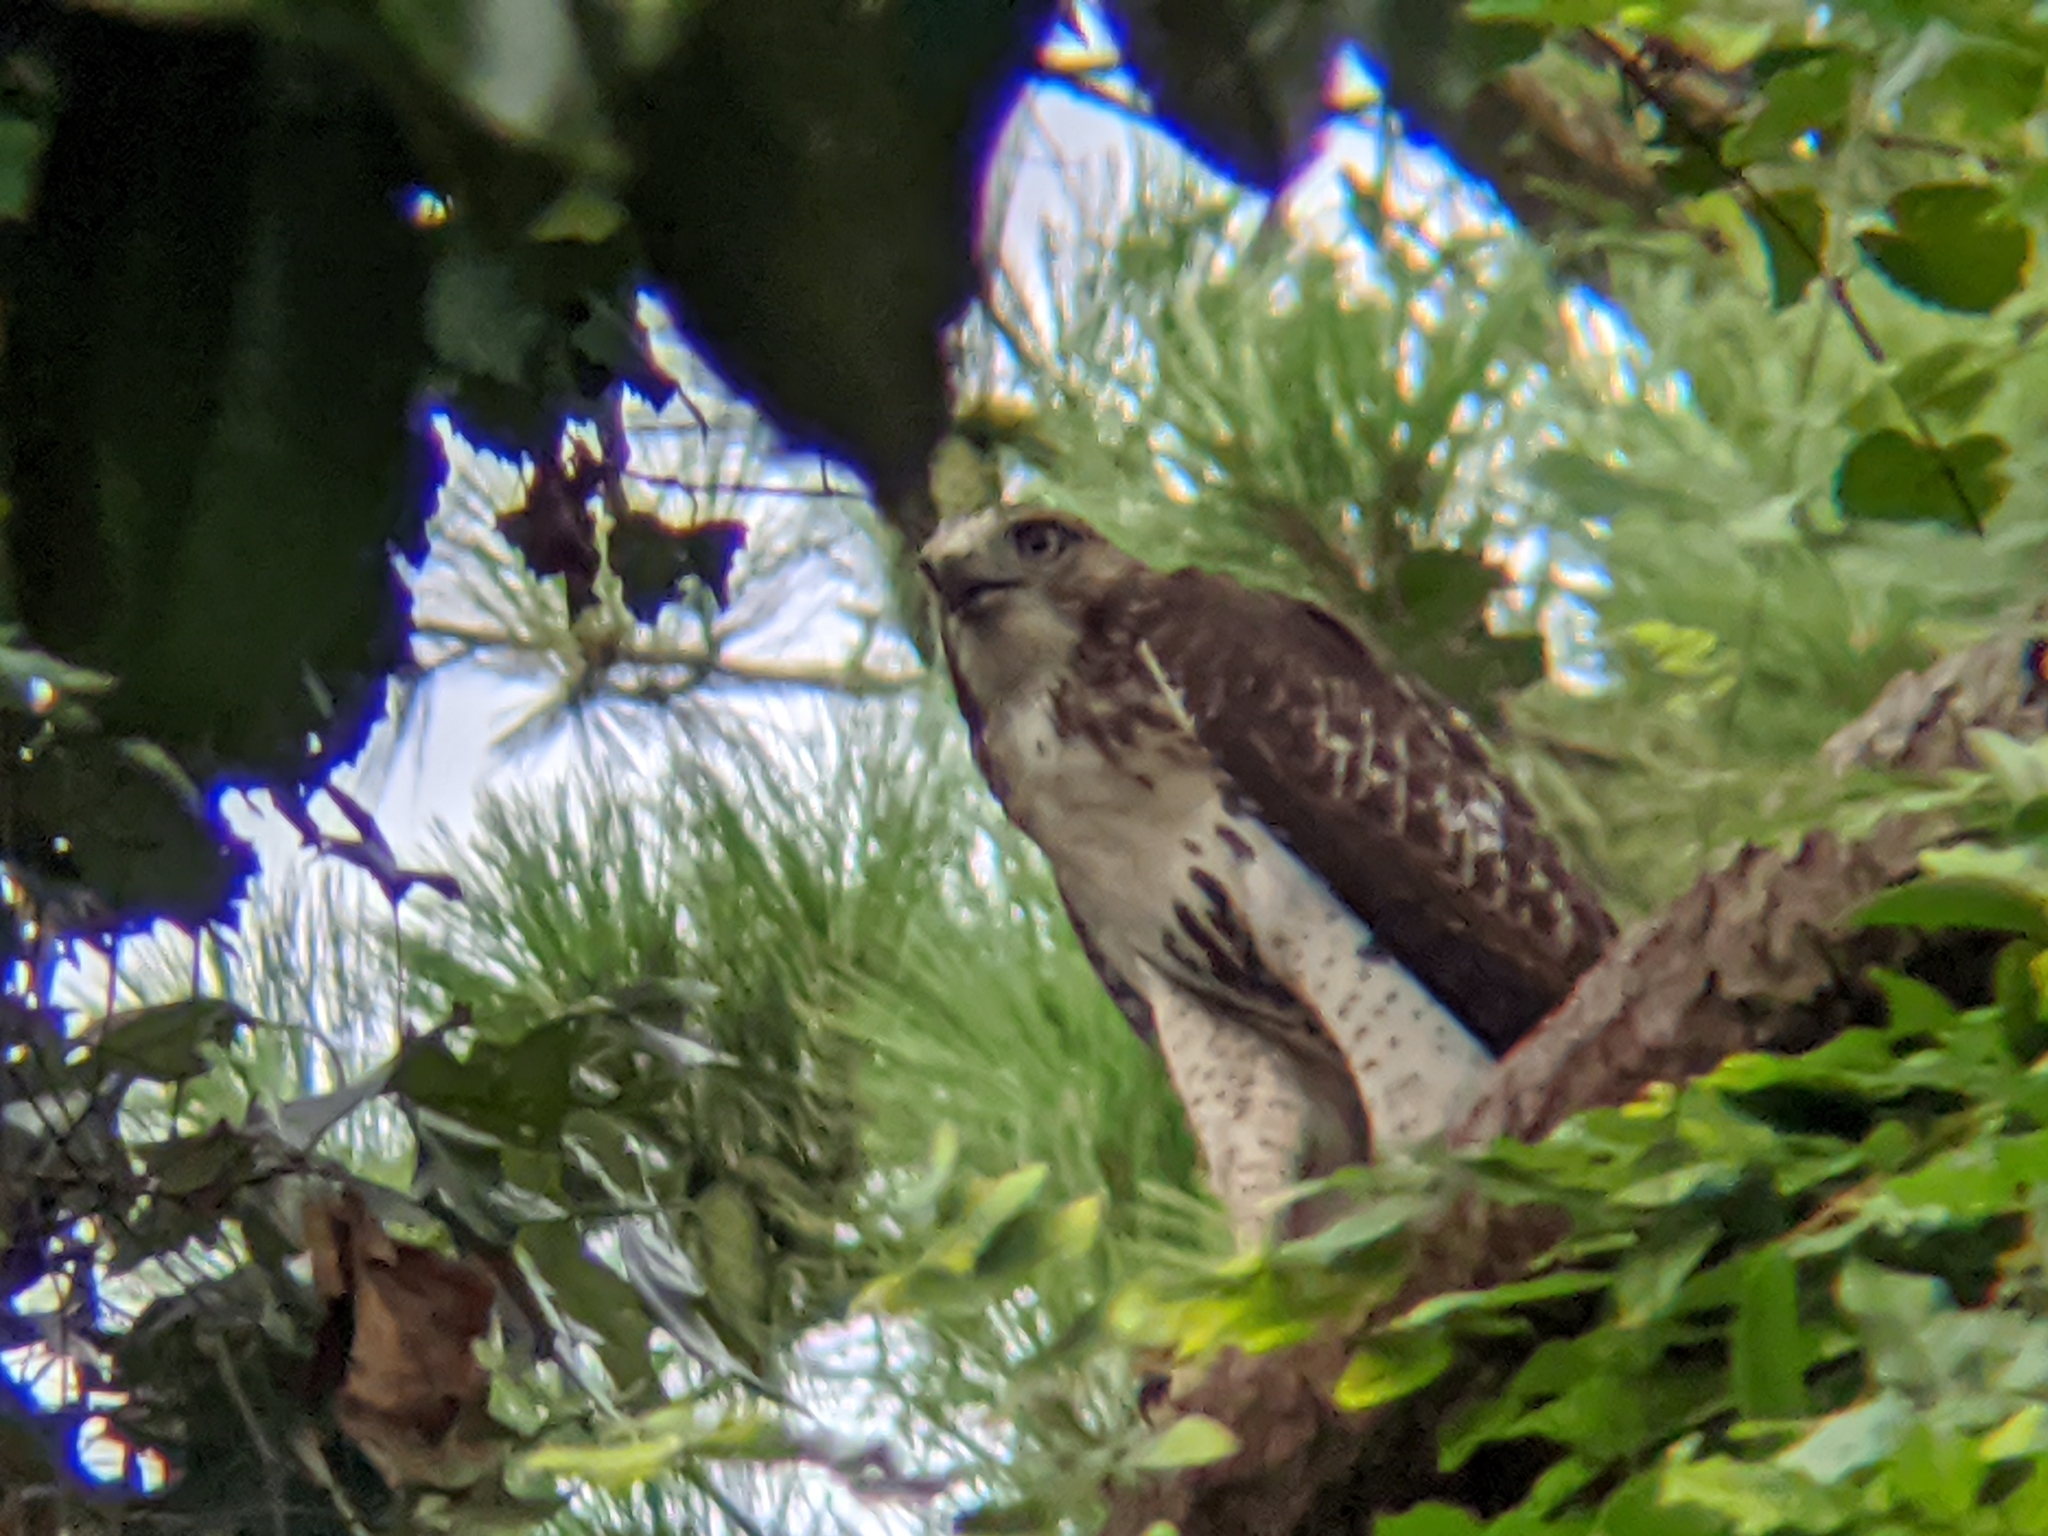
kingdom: Animalia
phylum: Chordata
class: Aves
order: Accipitriformes
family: Accipitridae
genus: Buteo
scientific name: Buteo jamaicensis
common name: Red-tailed hawk
